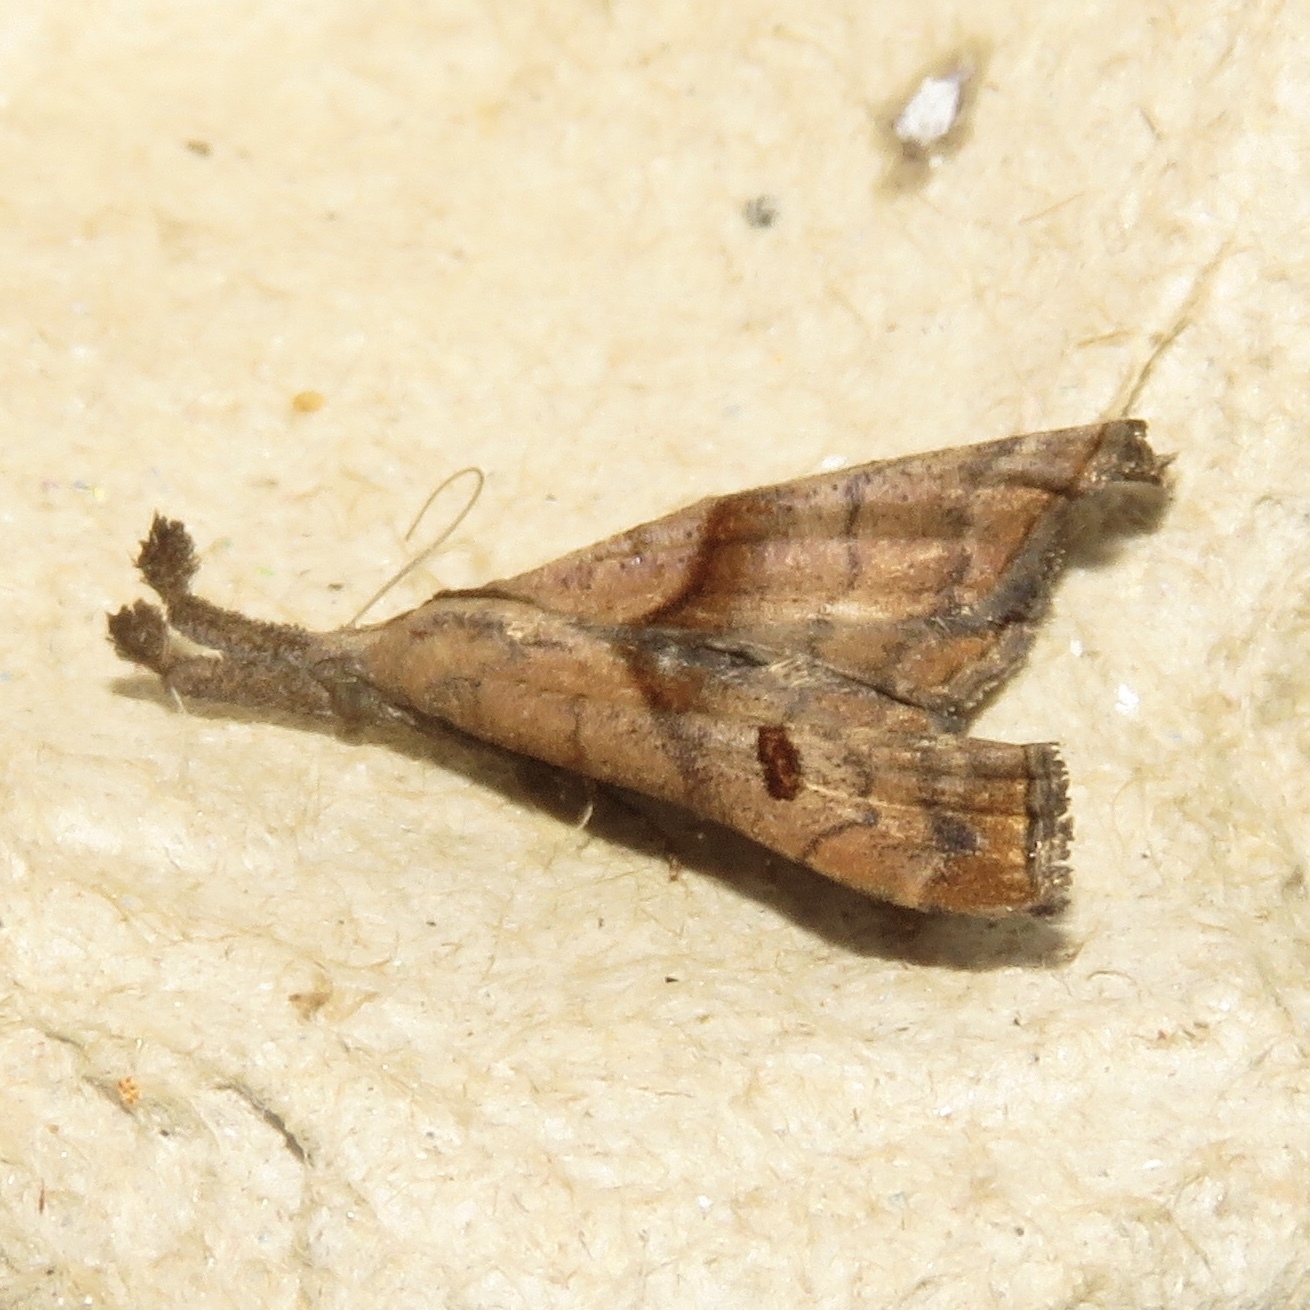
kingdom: Animalia
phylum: Arthropoda
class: Insecta
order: Lepidoptera
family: Erebidae
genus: Palthis
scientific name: Palthis angulalis
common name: Dark-spotted palthis moth
